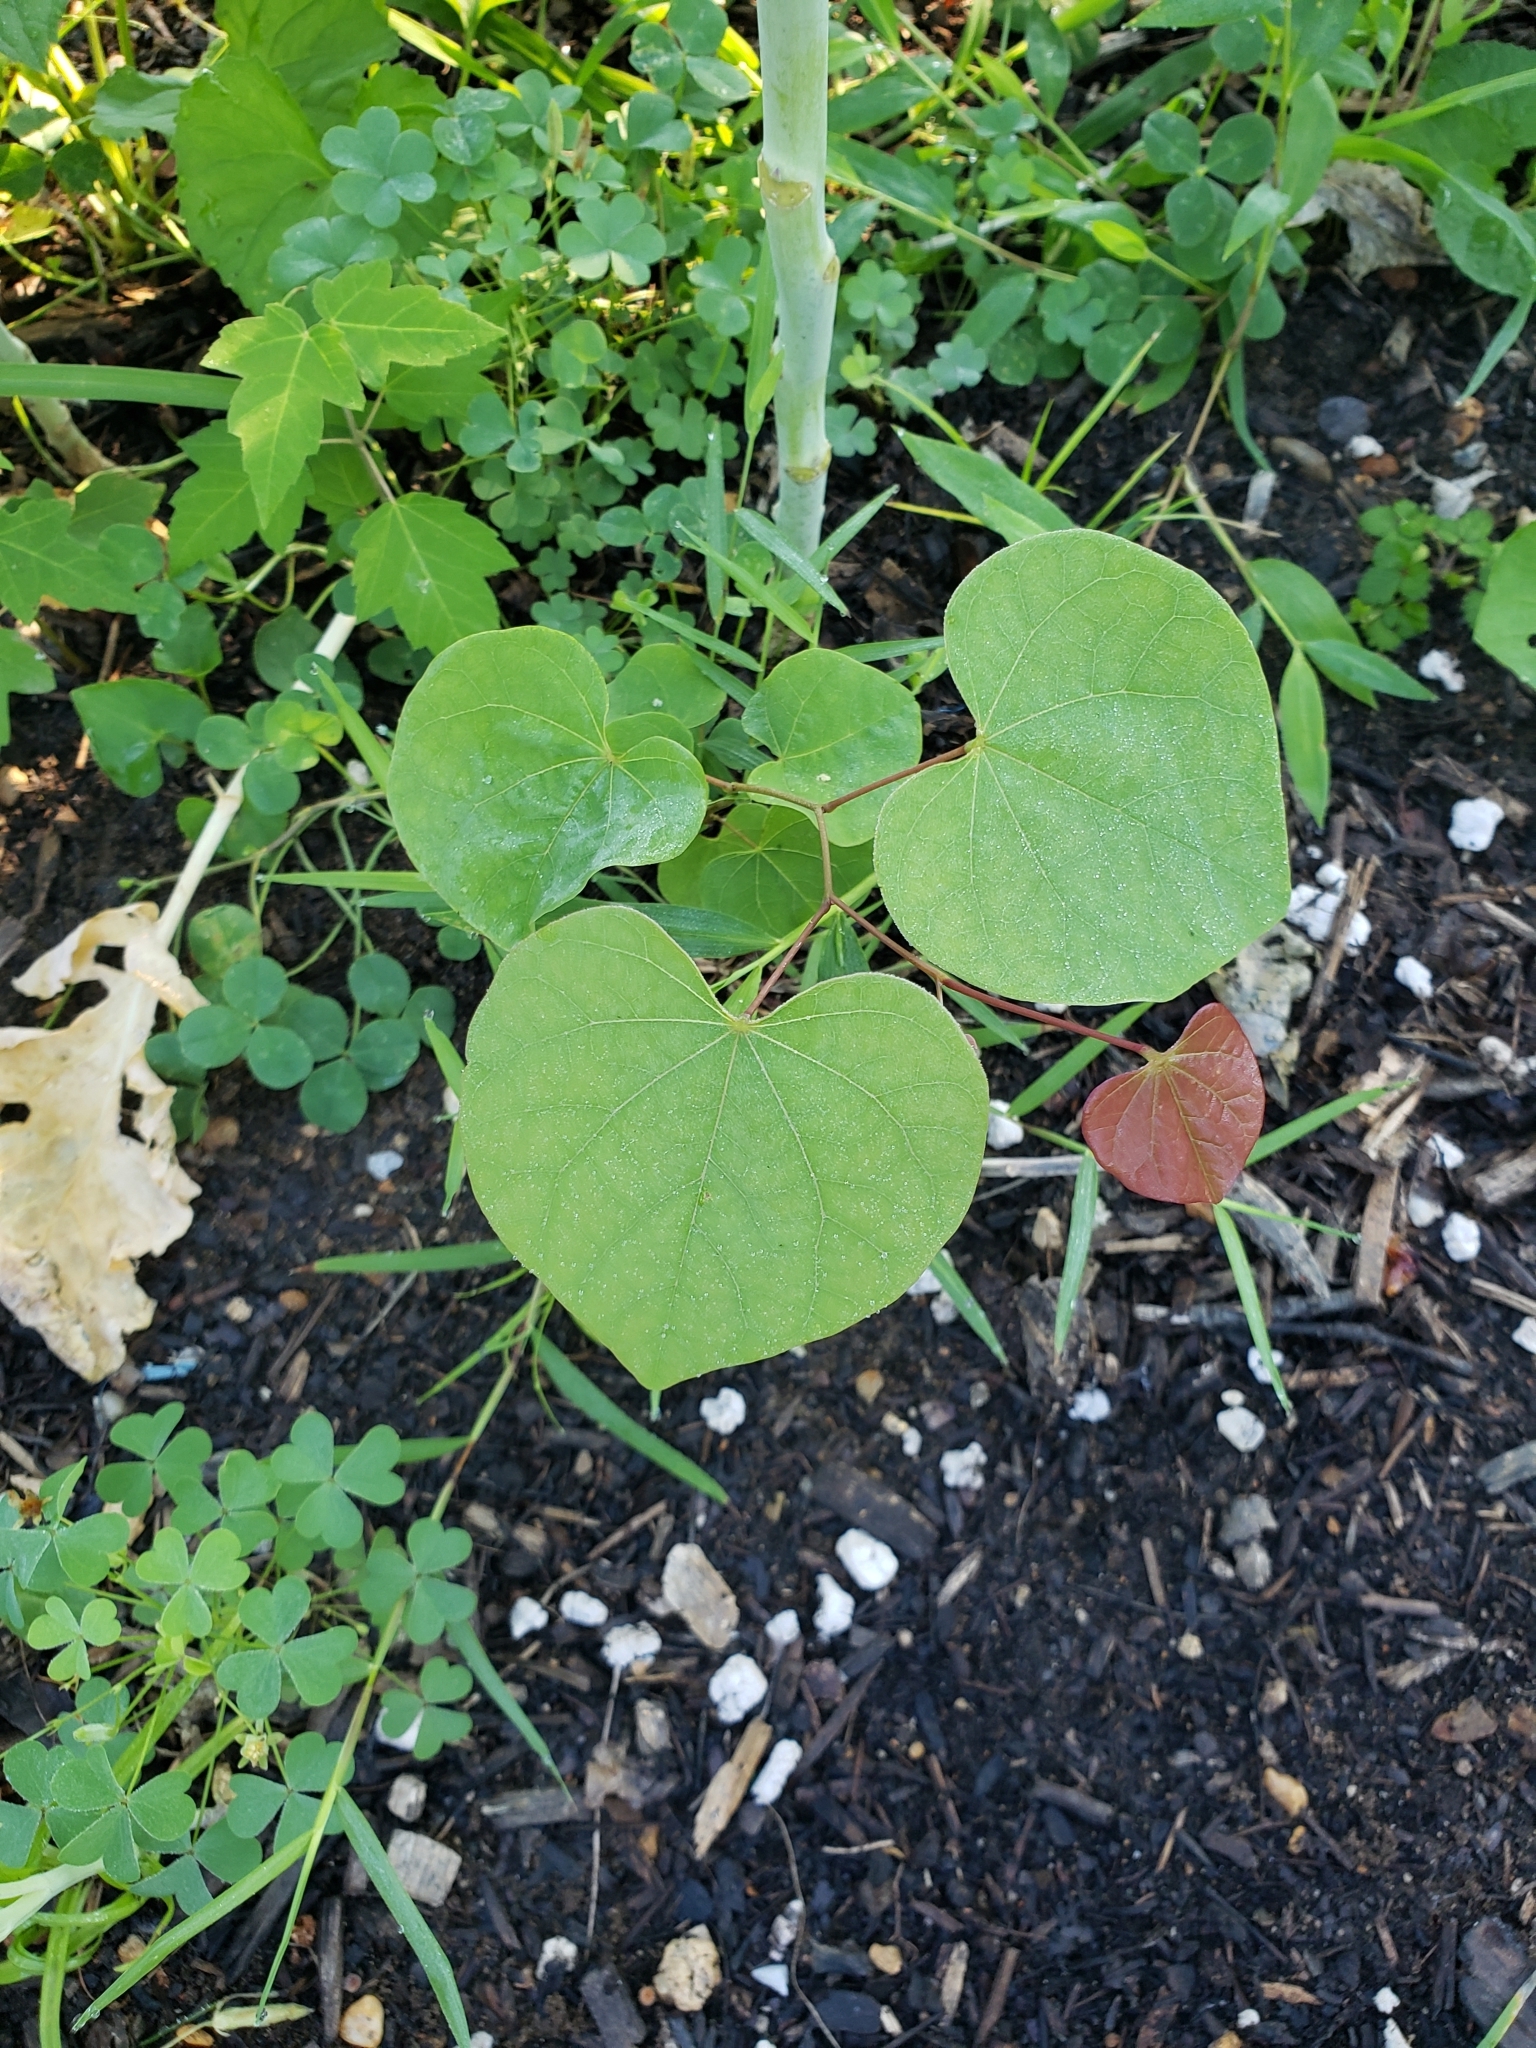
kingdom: Plantae
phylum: Tracheophyta
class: Magnoliopsida
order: Fabales
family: Fabaceae
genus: Cercis
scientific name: Cercis canadensis
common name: Eastern redbud
